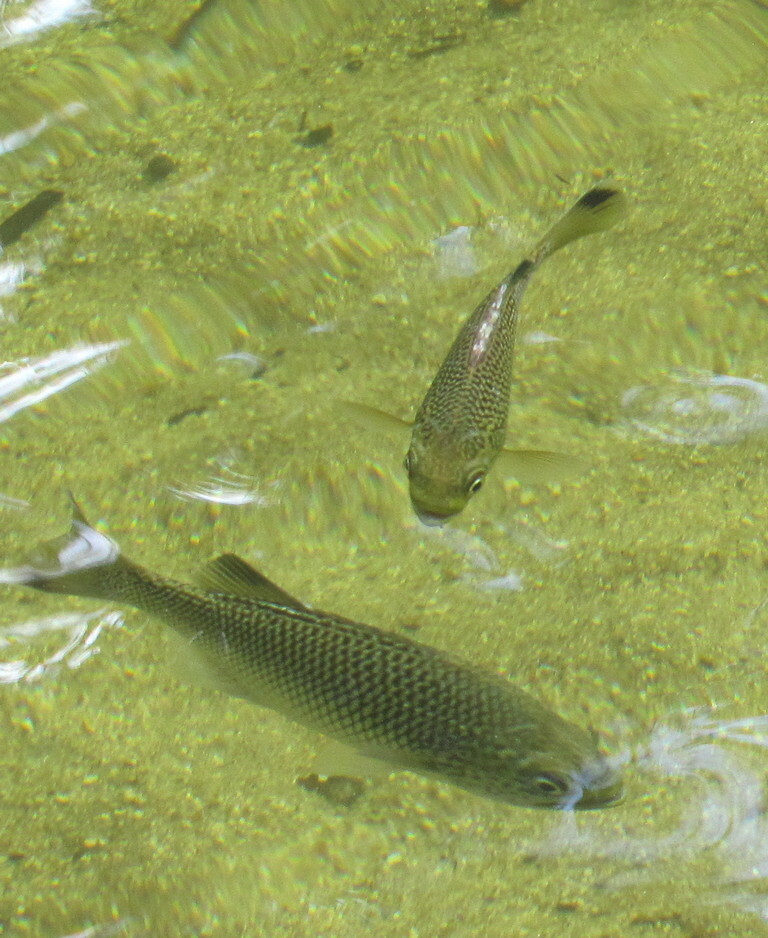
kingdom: Animalia
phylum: Chordata
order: Perciformes
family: Kuhliidae
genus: Kuhlia
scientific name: Kuhlia rupestris
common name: Rock flagtail
